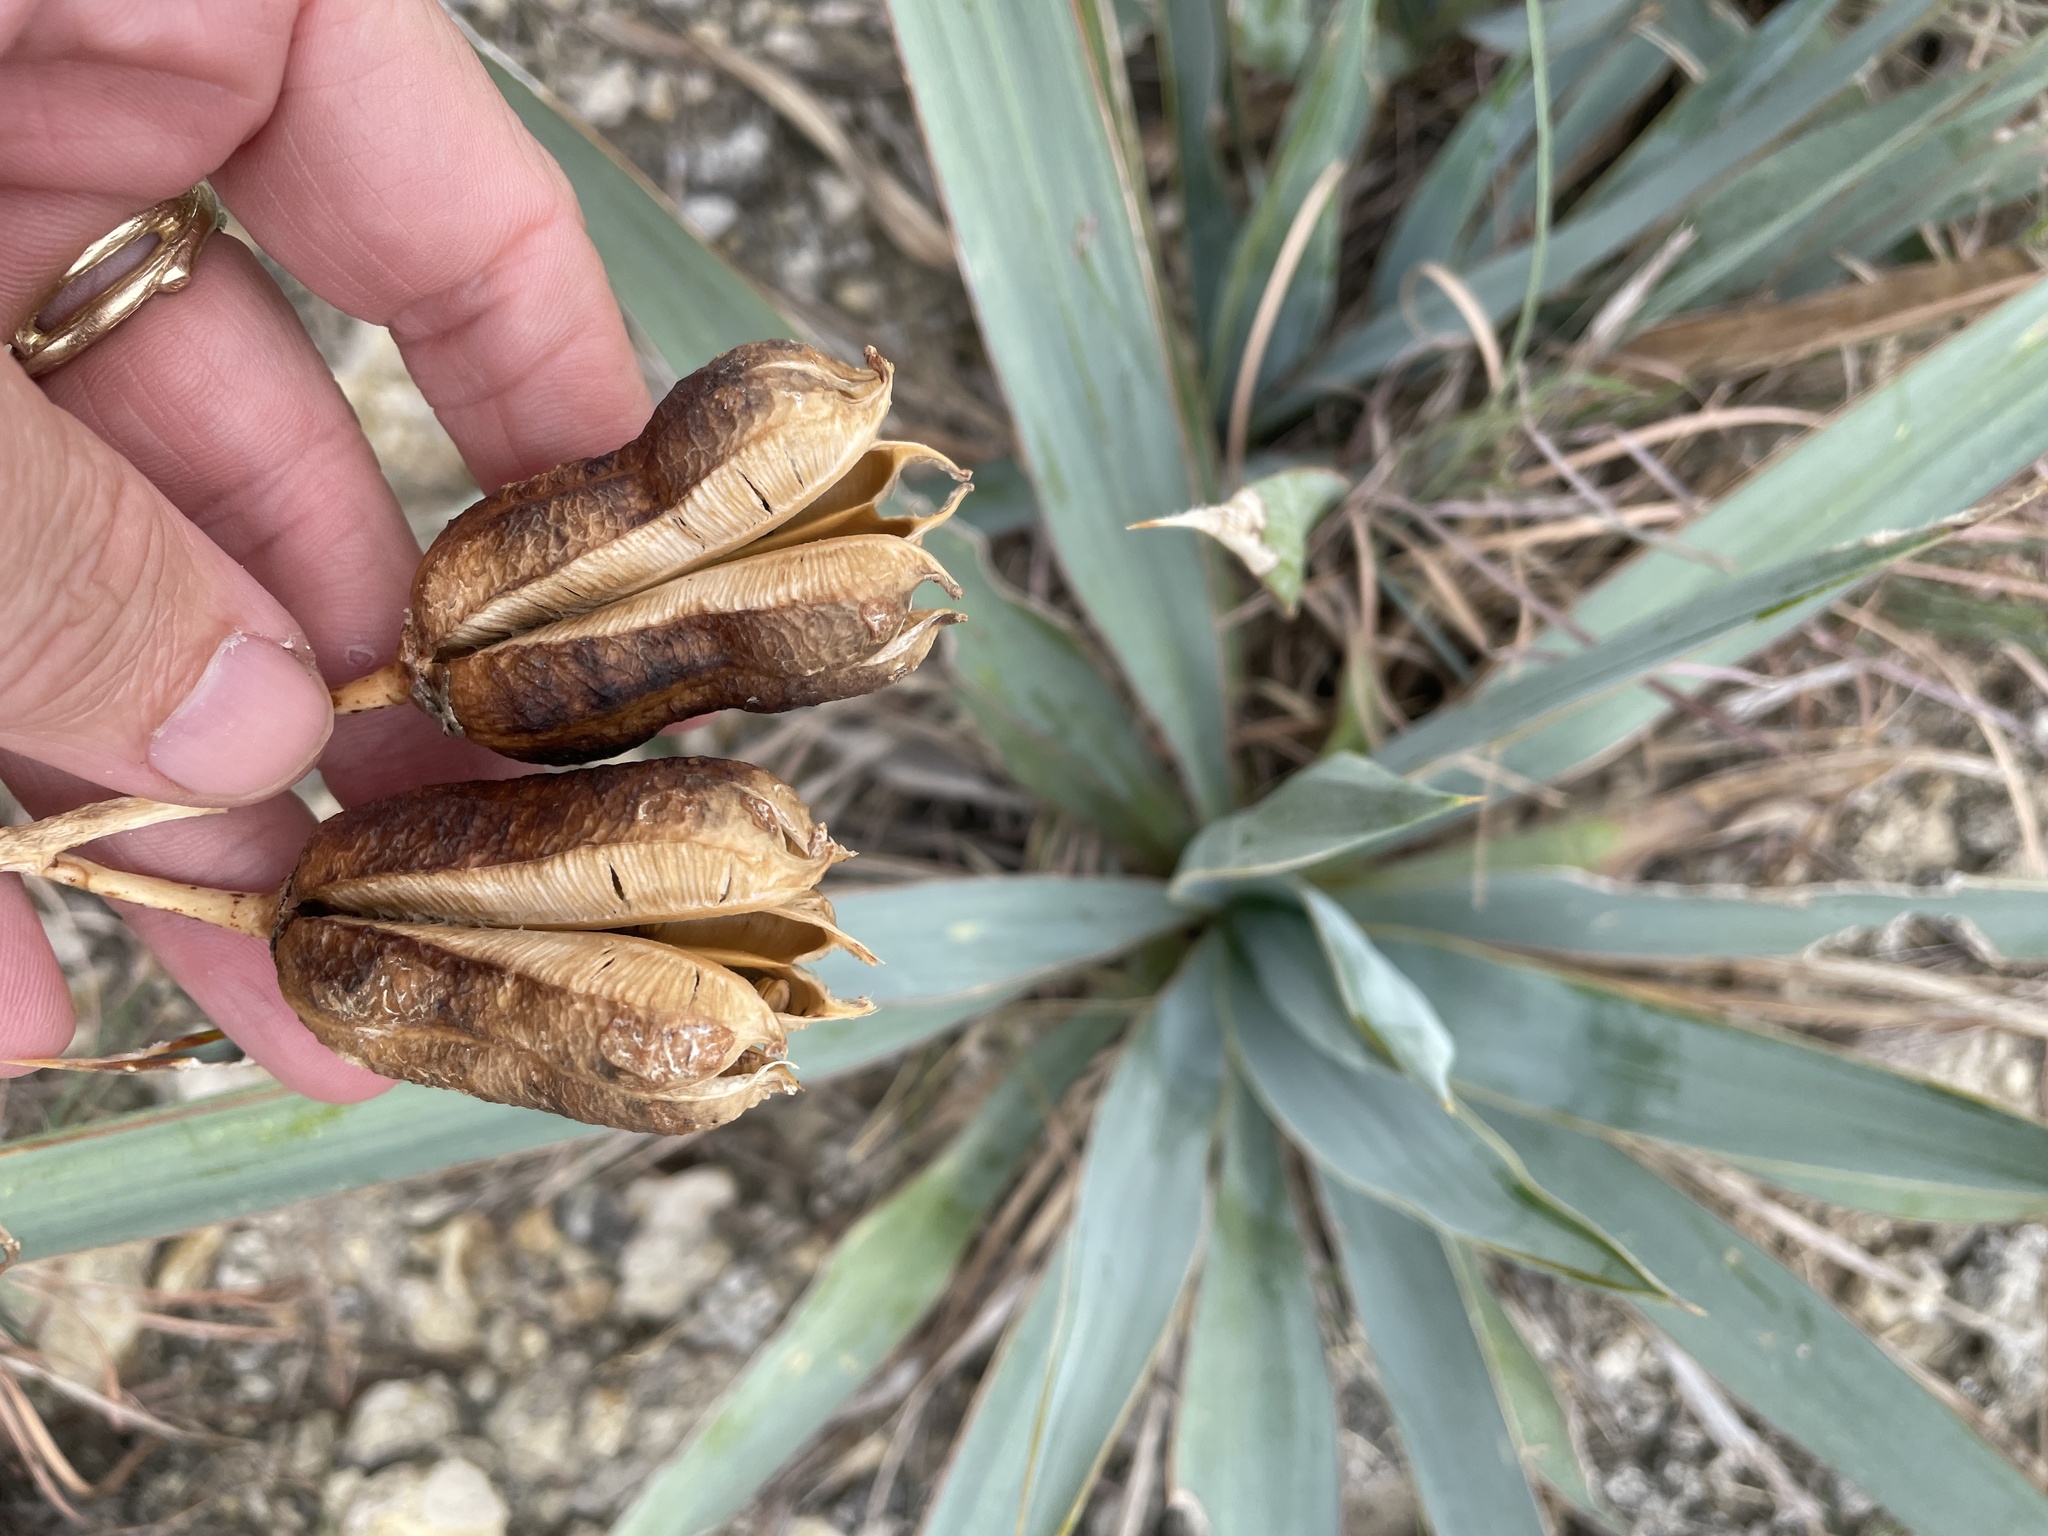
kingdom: Plantae
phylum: Tracheophyta
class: Liliopsida
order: Asparagales
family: Asparagaceae
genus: Yucca
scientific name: Yucca pallida
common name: Pale leaf yucca
